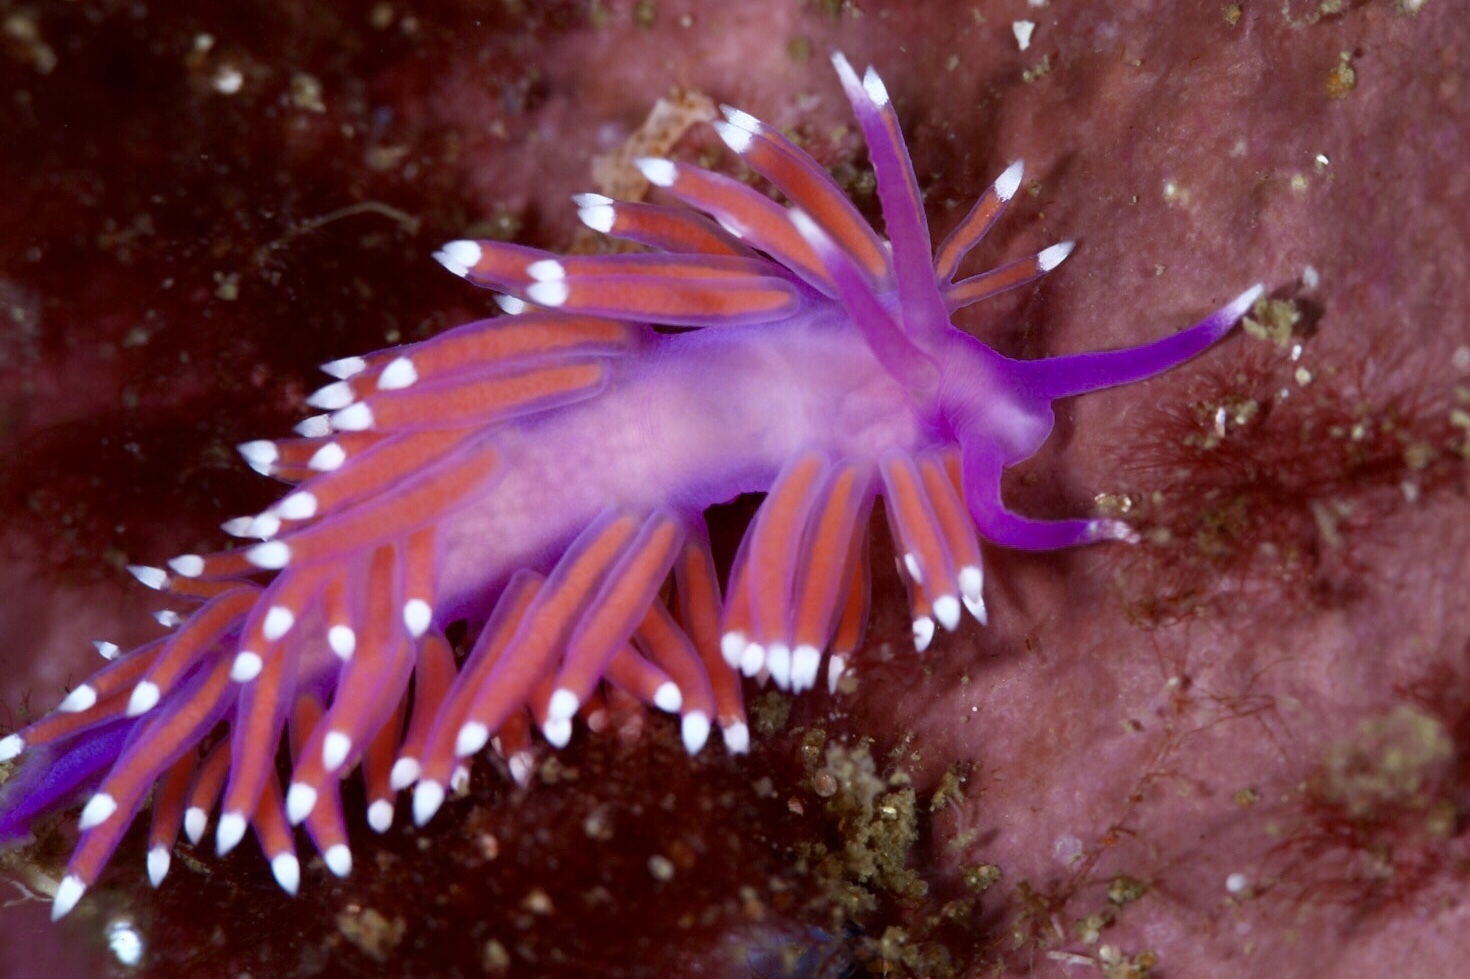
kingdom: Animalia
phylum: Mollusca
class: Gastropoda
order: Nudibranchia
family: Flabellinidae
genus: Edmundsella
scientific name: Edmundsella pedata
